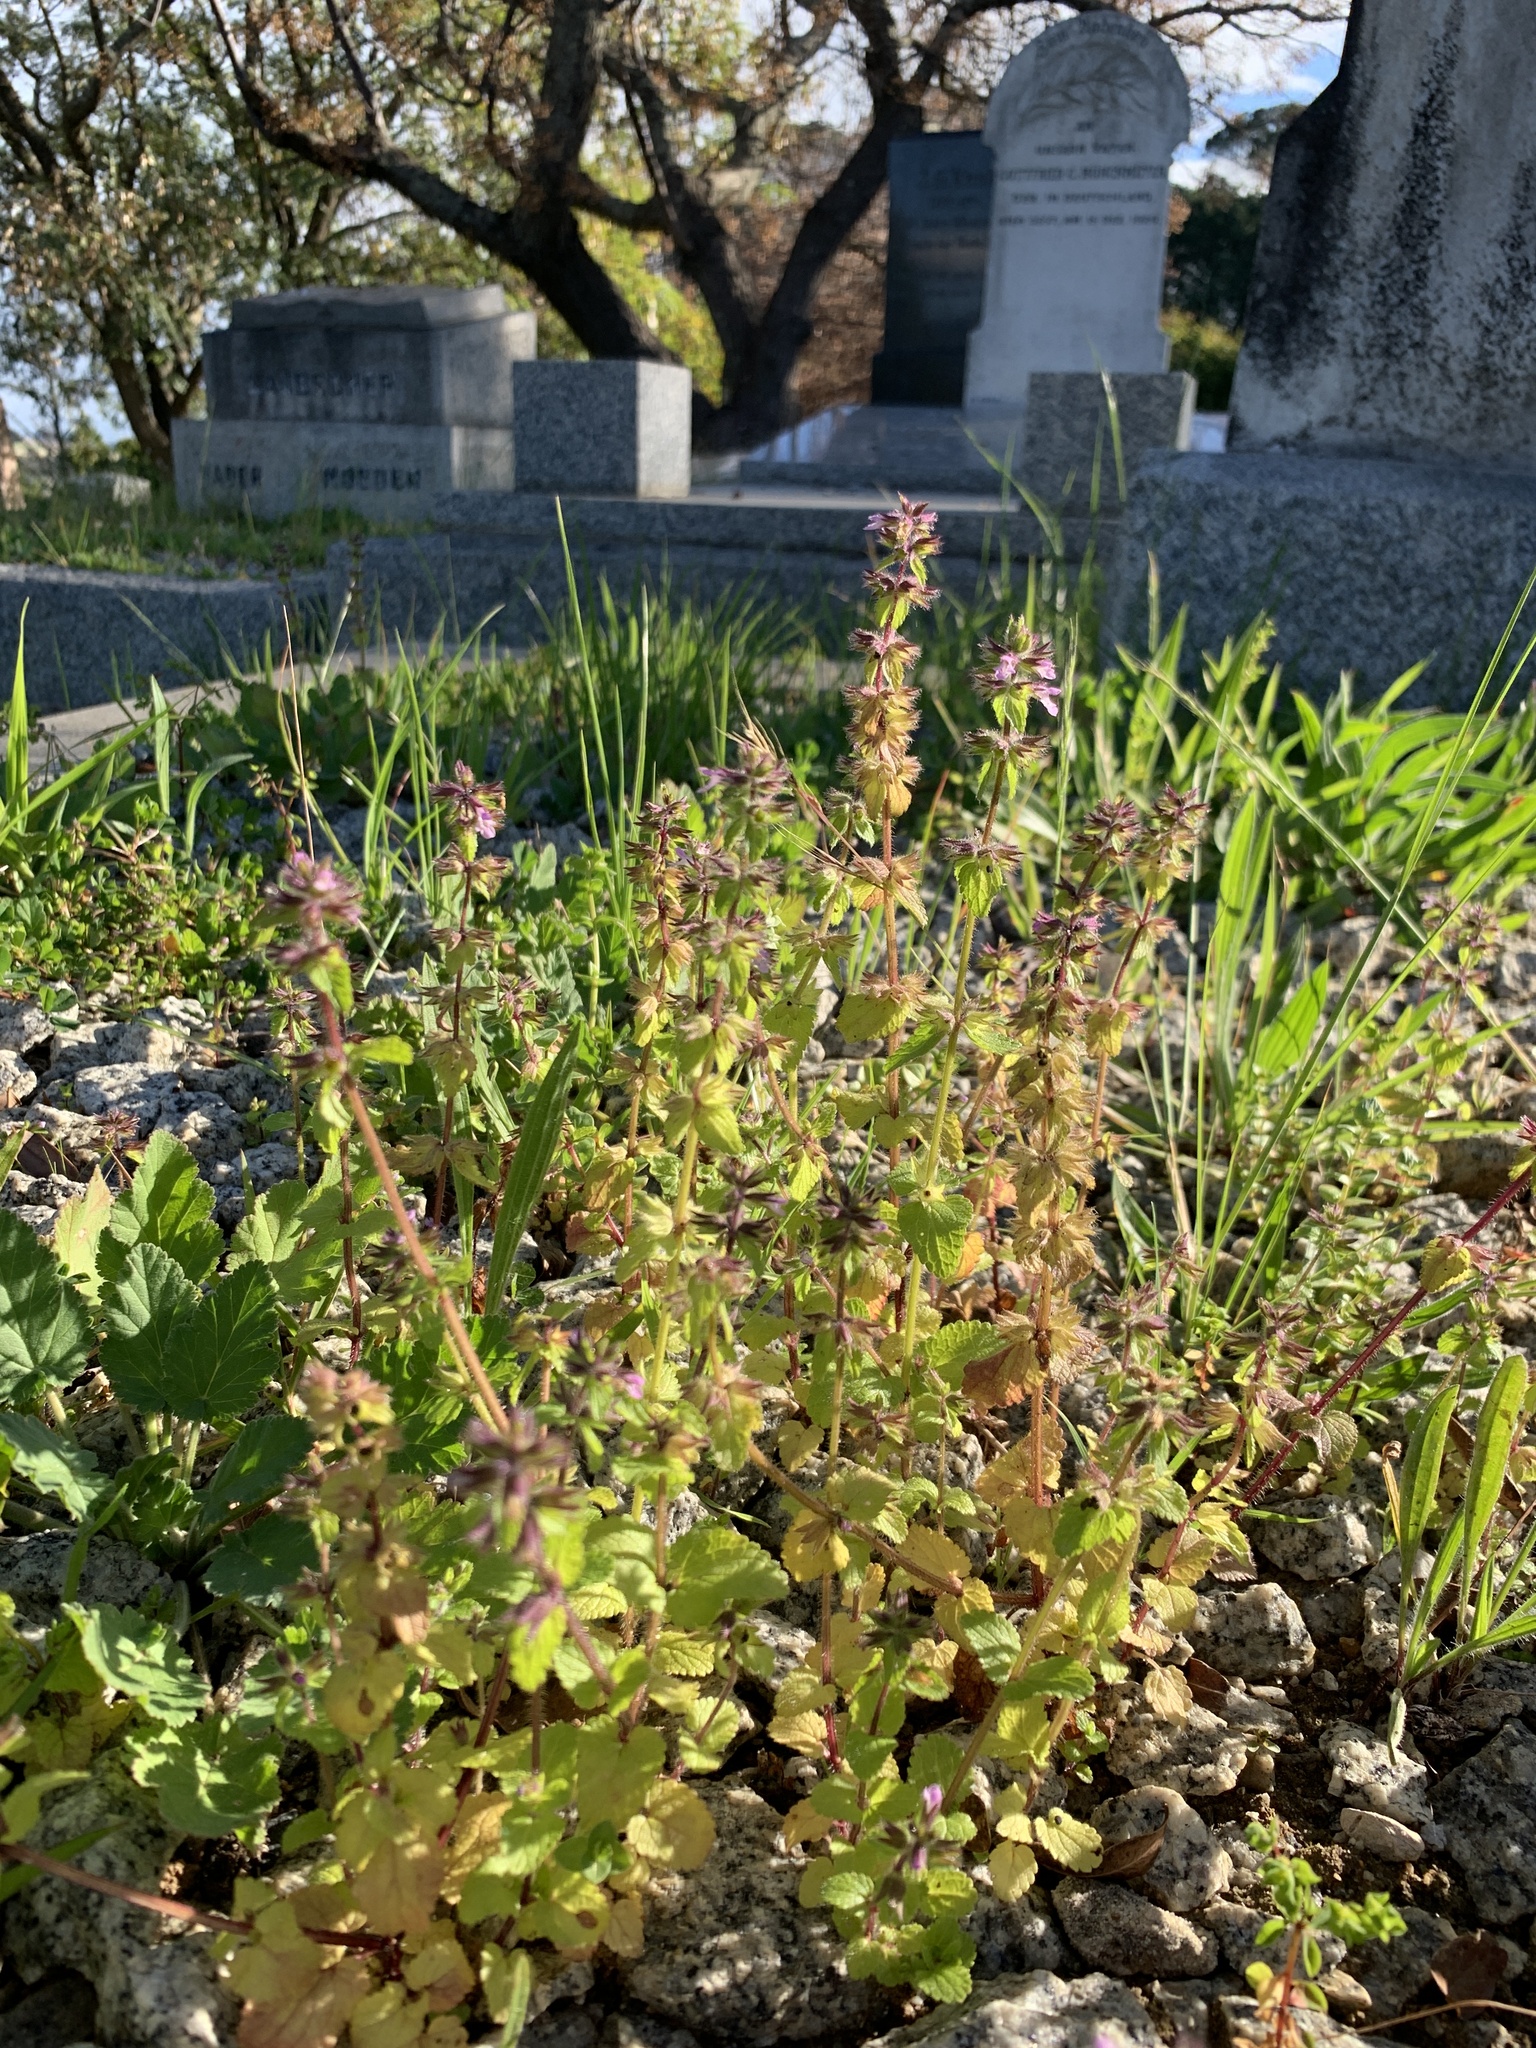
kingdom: Plantae
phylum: Tracheophyta
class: Magnoliopsida
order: Lamiales
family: Lamiaceae
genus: Stachys
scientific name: Stachys arvensis
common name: Field woundwort
